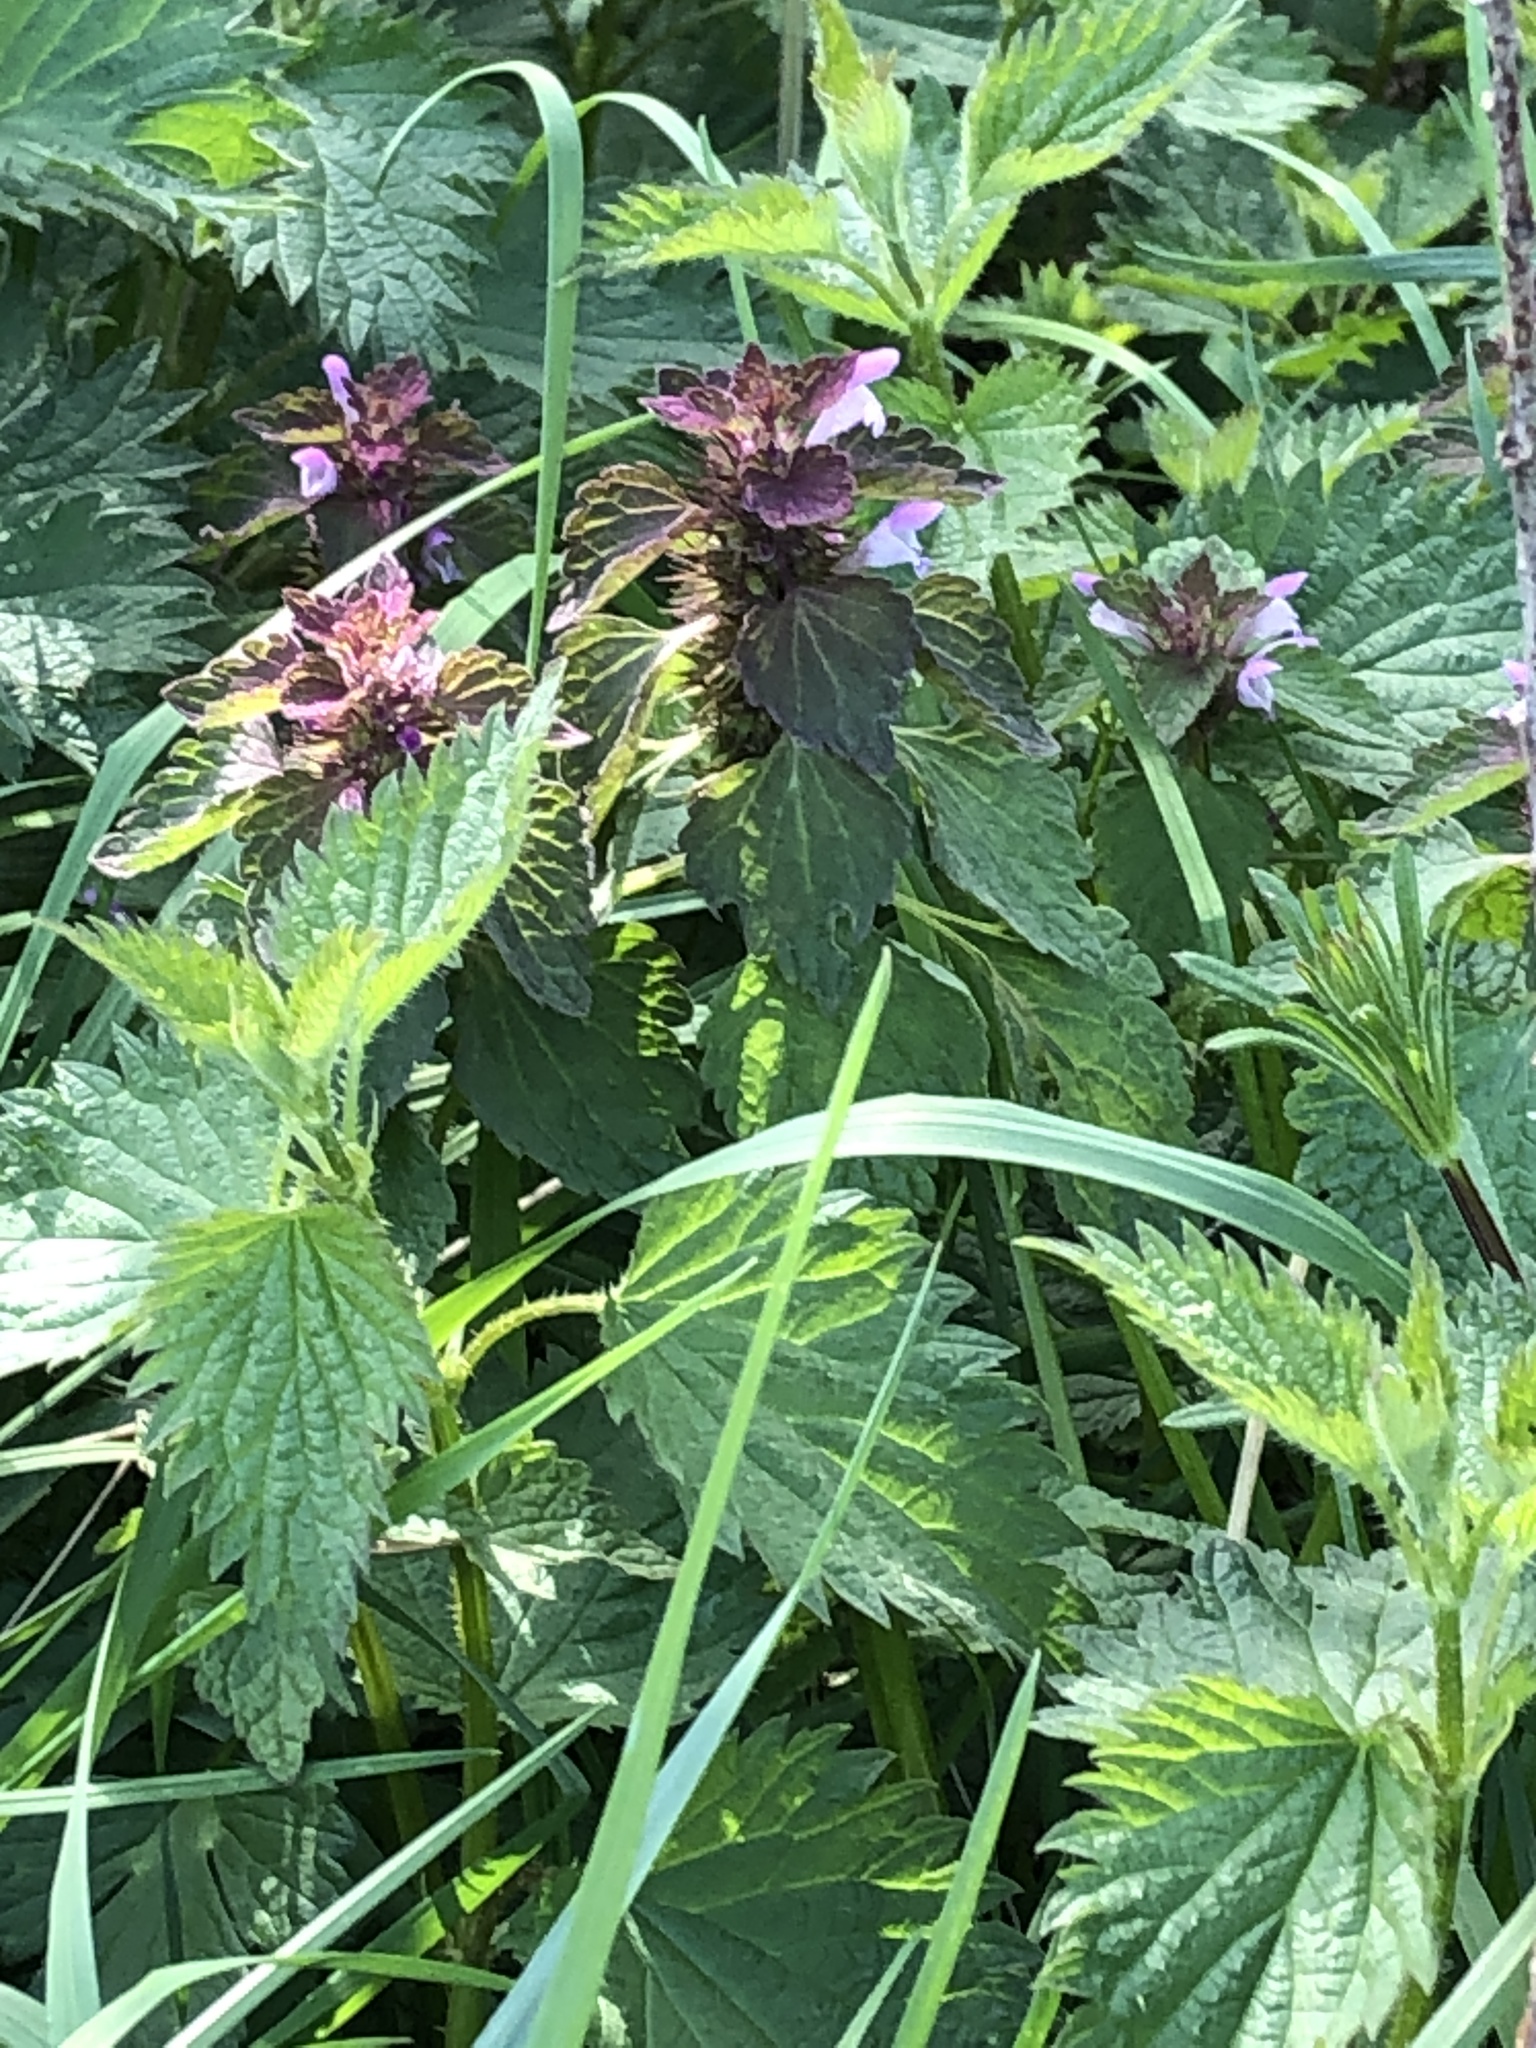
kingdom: Plantae
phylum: Tracheophyta
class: Magnoliopsida
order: Lamiales
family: Lamiaceae
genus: Lamium
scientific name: Lamium purpureum
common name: Red dead-nettle
